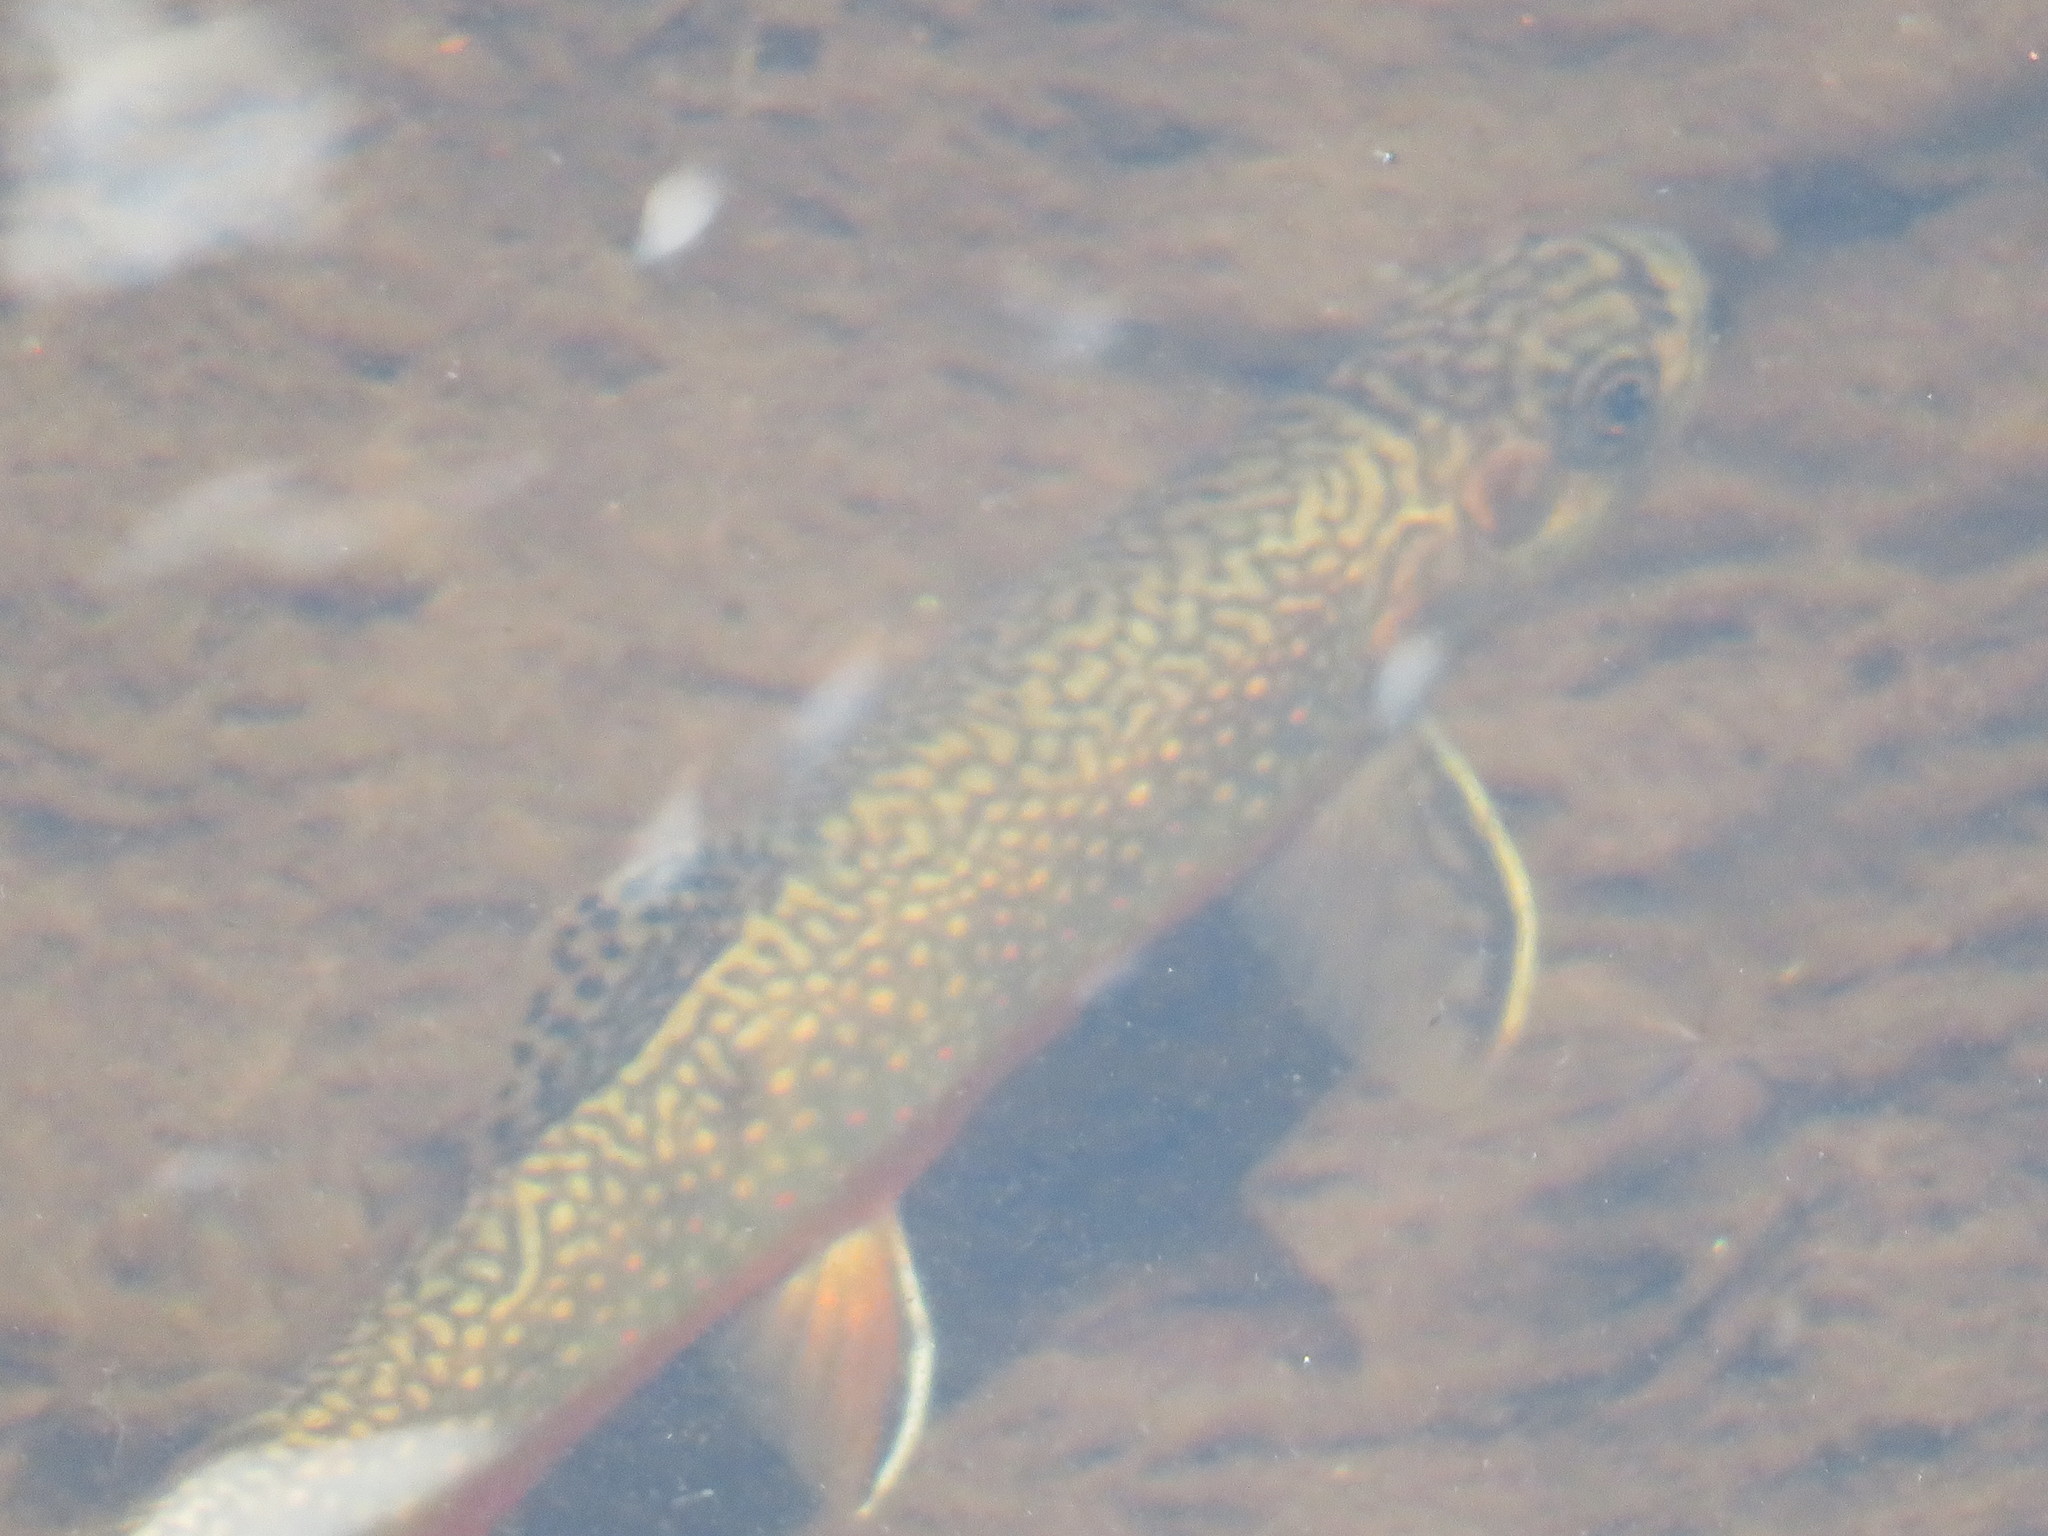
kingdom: Animalia
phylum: Chordata
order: Salmoniformes
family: Salmonidae
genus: Salvelinus
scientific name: Salvelinus fontinalis
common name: Brook trout
